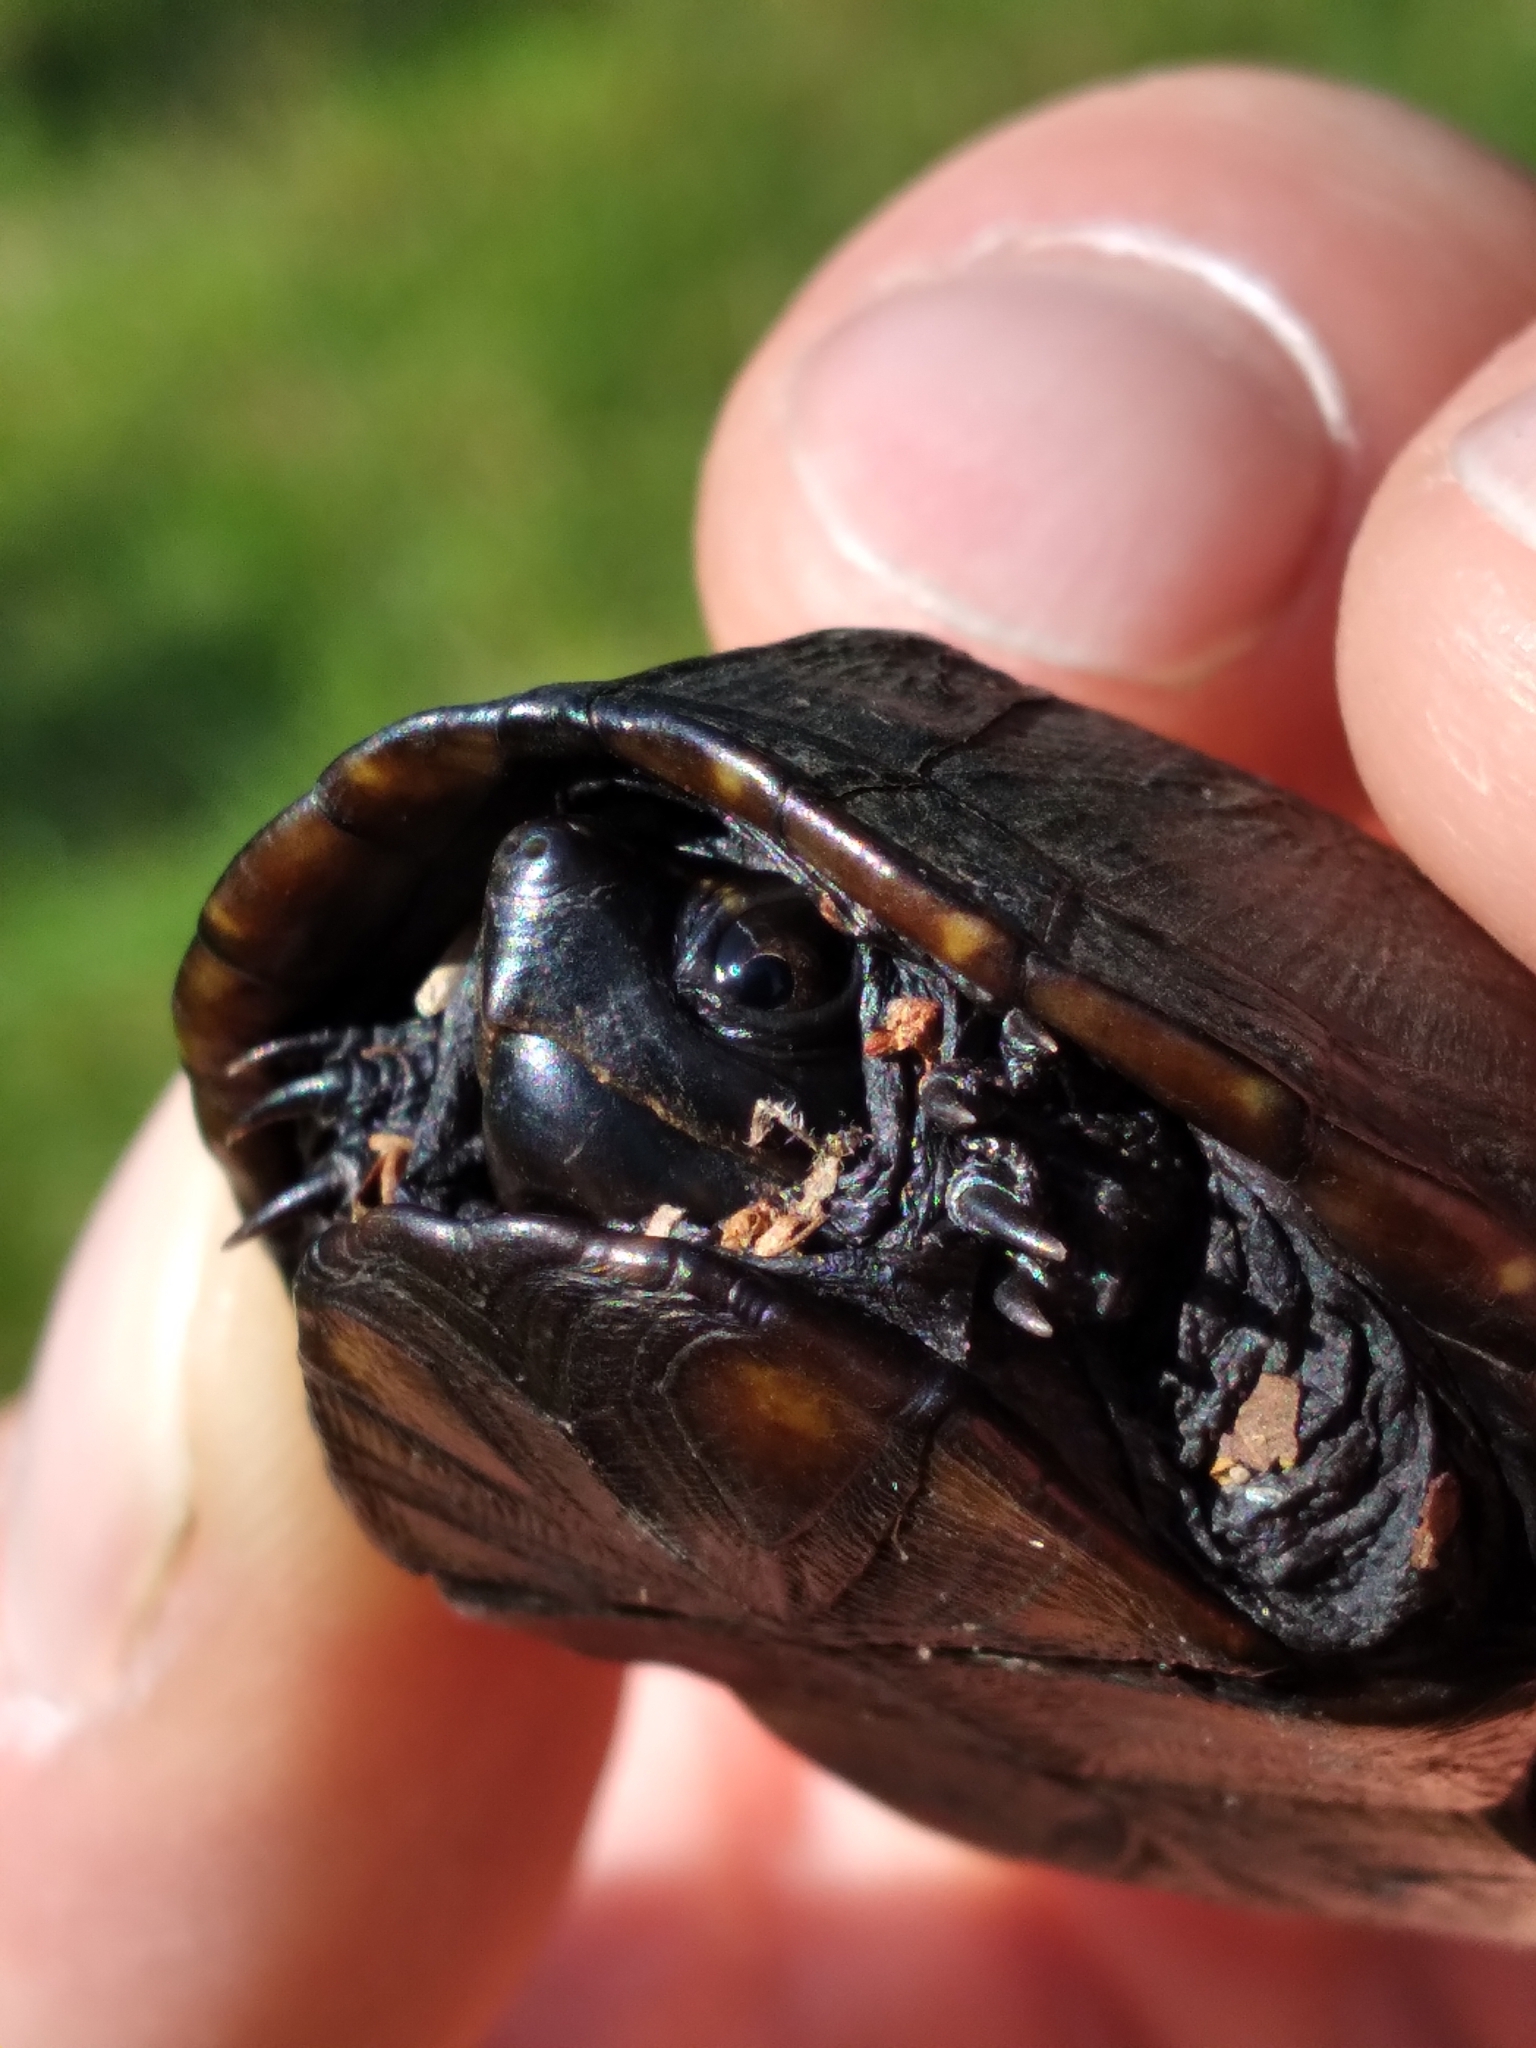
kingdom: Animalia
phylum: Chordata
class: Testudines
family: Kinosternidae
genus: Kinosternon
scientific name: Kinosternon baurii
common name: Striped mud turtle
